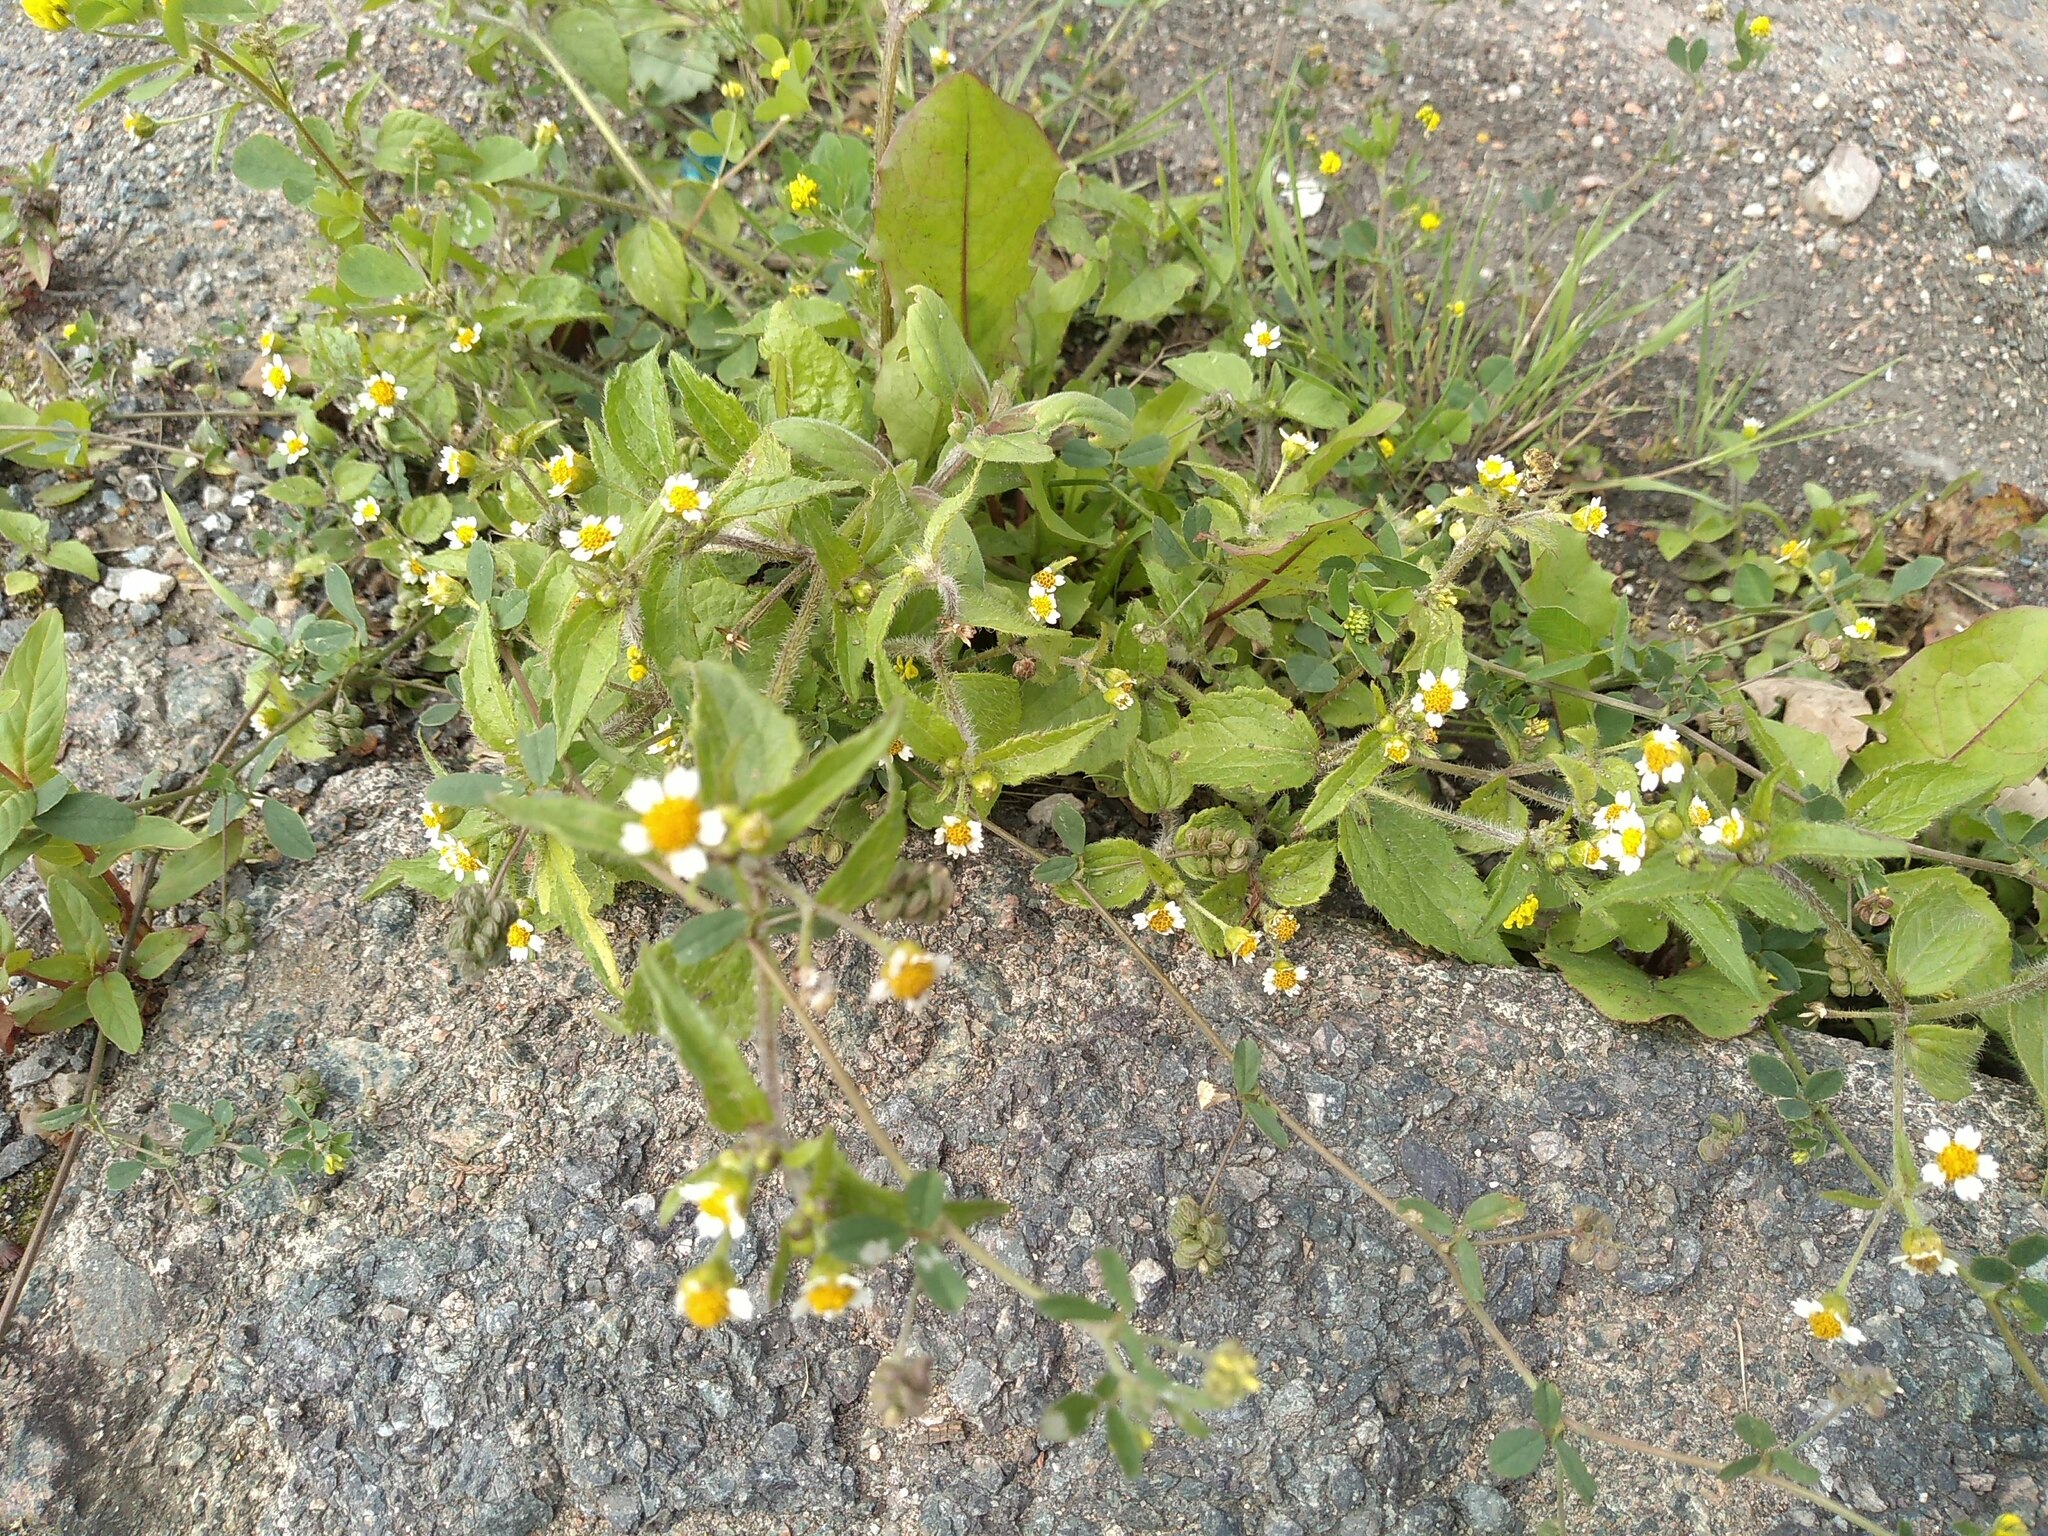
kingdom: Plantae
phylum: Tracheophyta
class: Magnoliopsida
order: Asterales
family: Asteraceae
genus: Galinsoga
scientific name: Galinsoga quadriradiata
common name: Shaggy soldier
